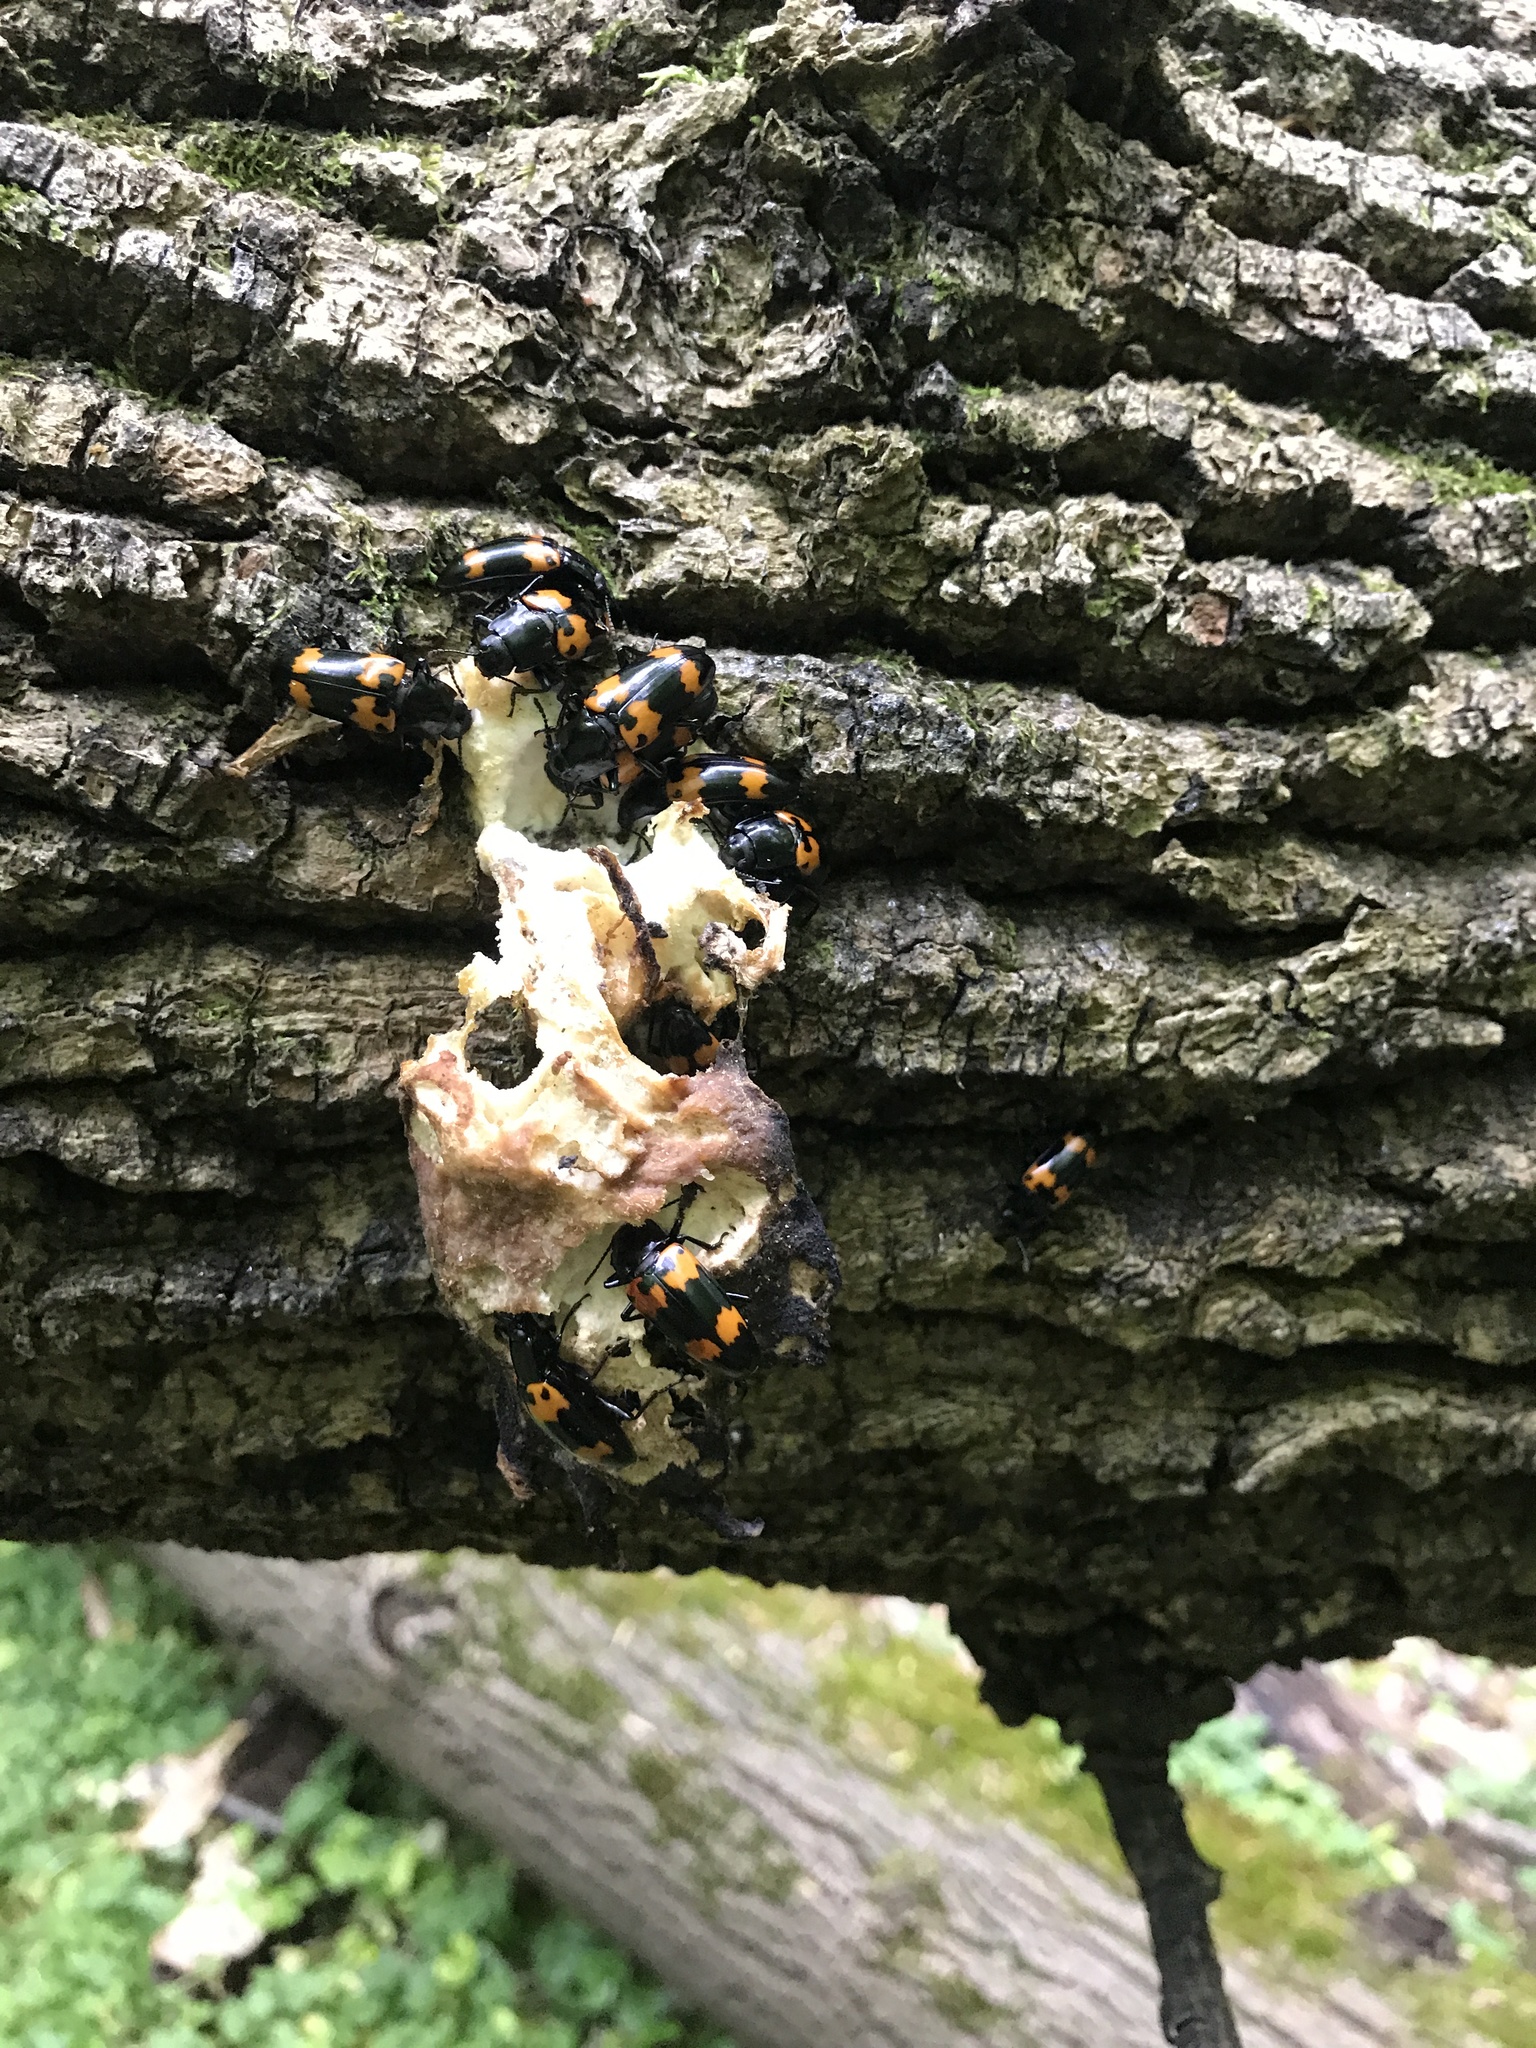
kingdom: Animalia
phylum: Arthropoda
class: Insecta
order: Coleoptera
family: Erotylidae
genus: Megalodacne
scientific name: Megalodacne heros
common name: Pleasing fungus beetle
